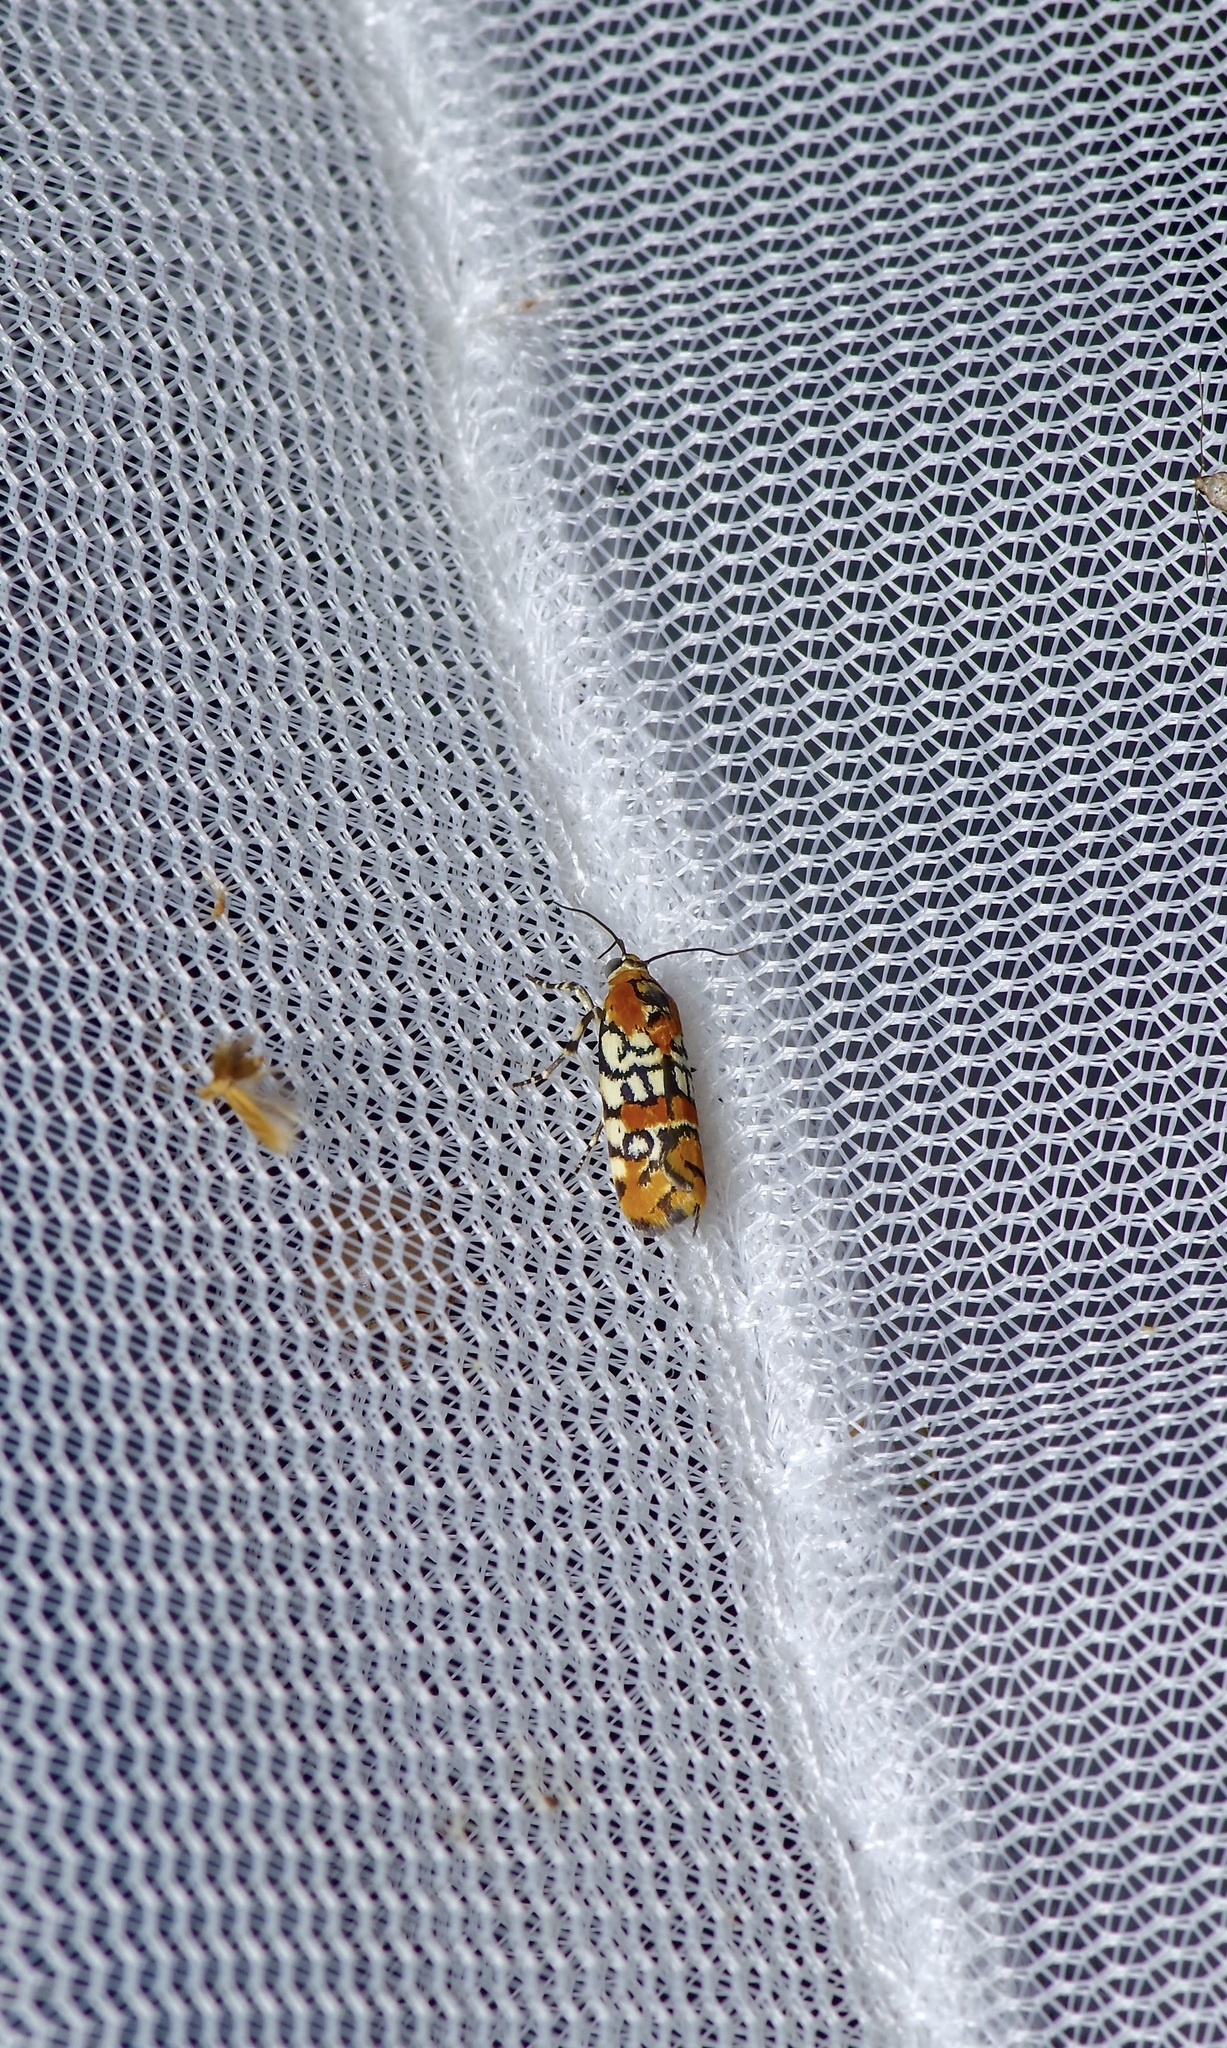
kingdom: Animalia
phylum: Arthropoda
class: Insecta
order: Lepidoptera
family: Noctuidae
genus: Spragueia
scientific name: Spragueia guttata
